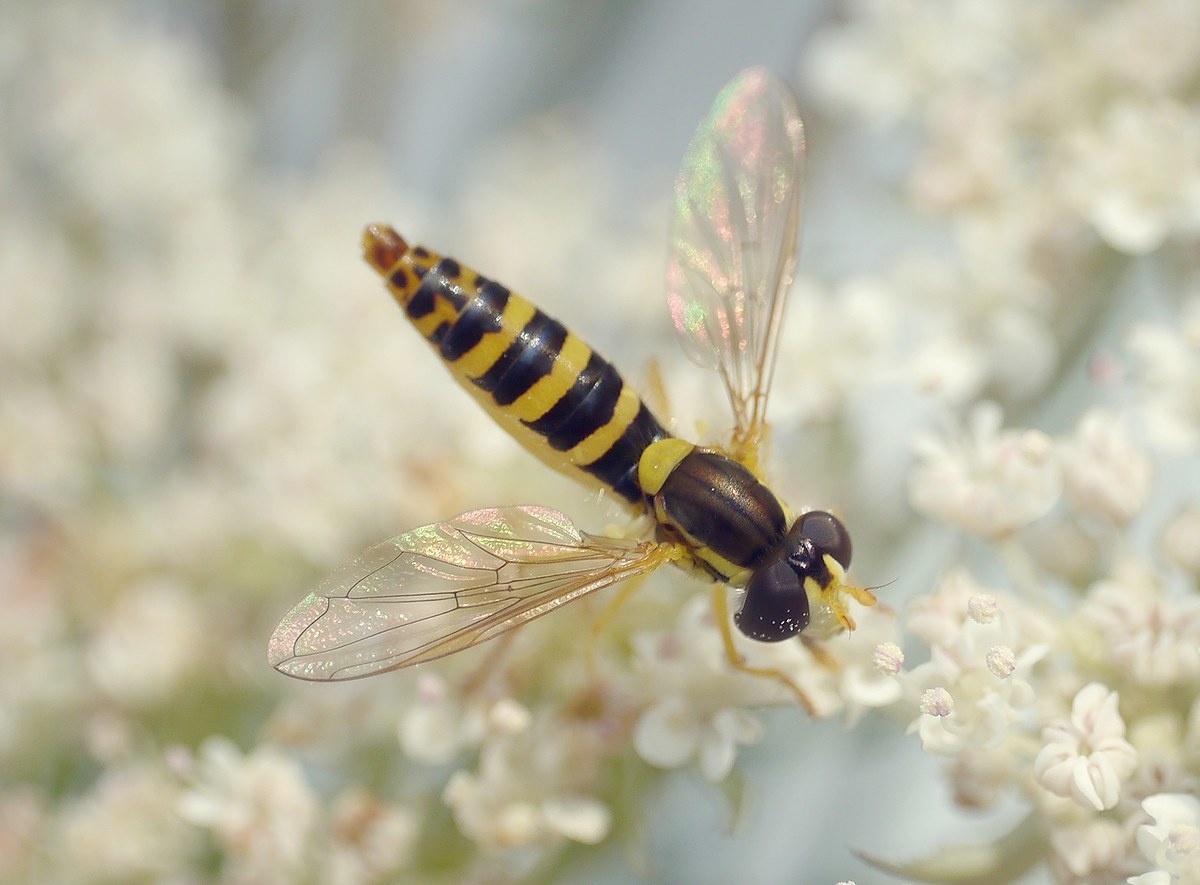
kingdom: Animalia
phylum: Arthropoda
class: Insecta
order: Diptera
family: Syrphidae
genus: Sphaerophoria
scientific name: Sphaerophoria scripta
